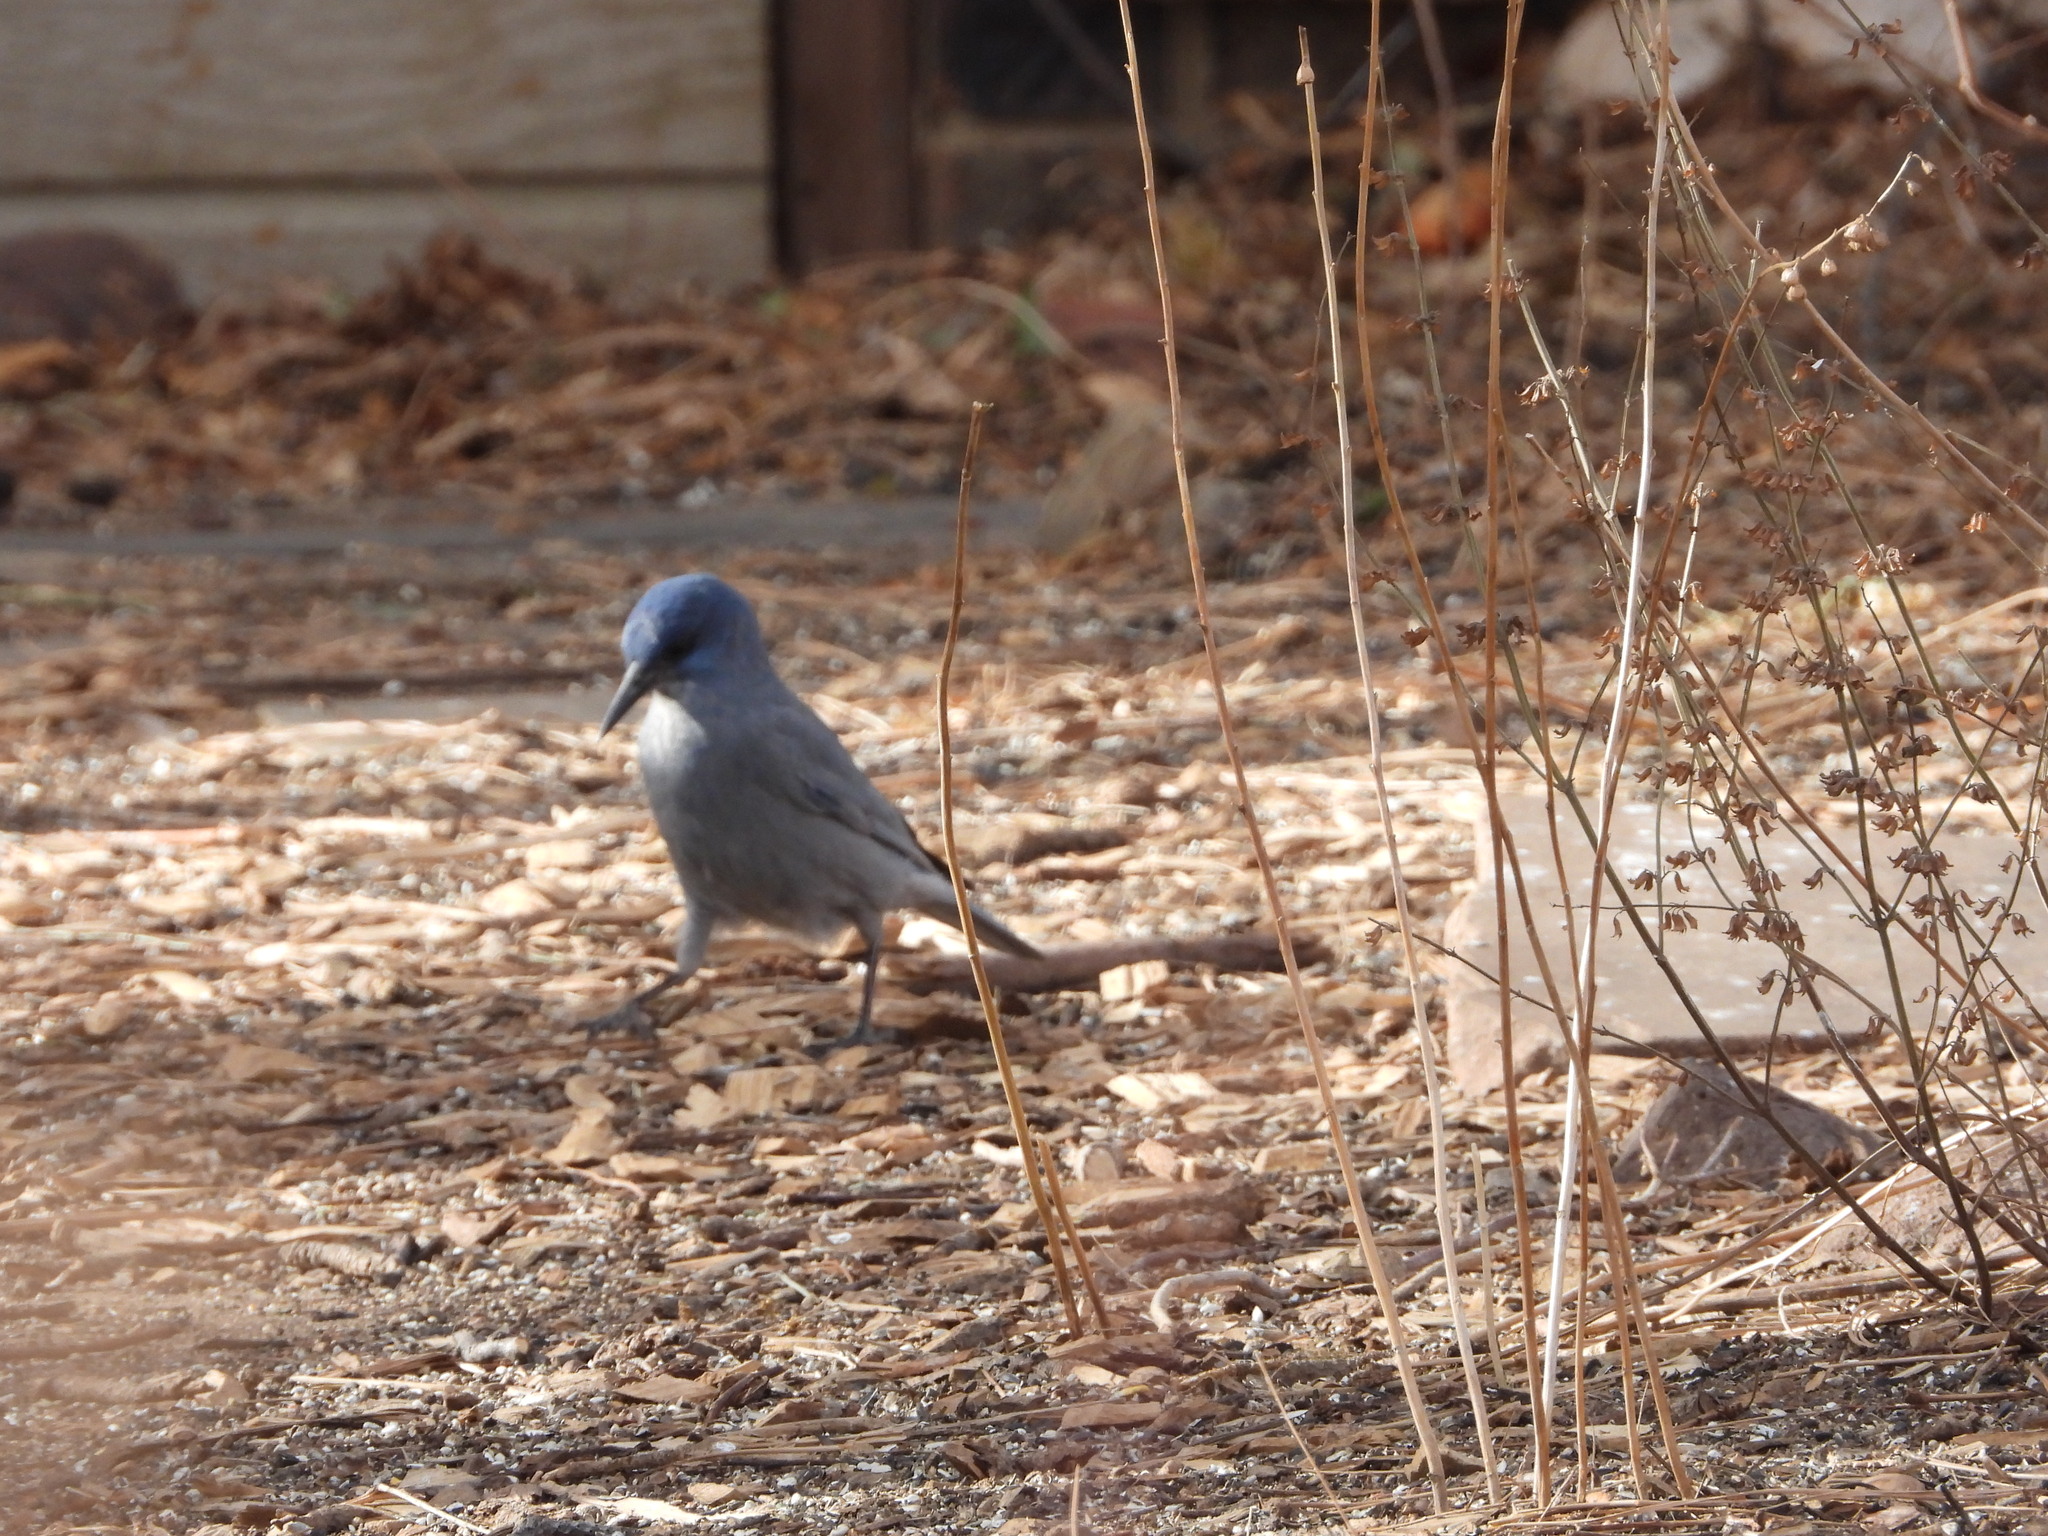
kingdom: Animalia
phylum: Chordata
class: Aves
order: Passeriformes
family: Corvidae
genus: Gymnorhinus
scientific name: Gymnorhinus cyanocephalus
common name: Pinyon jay
